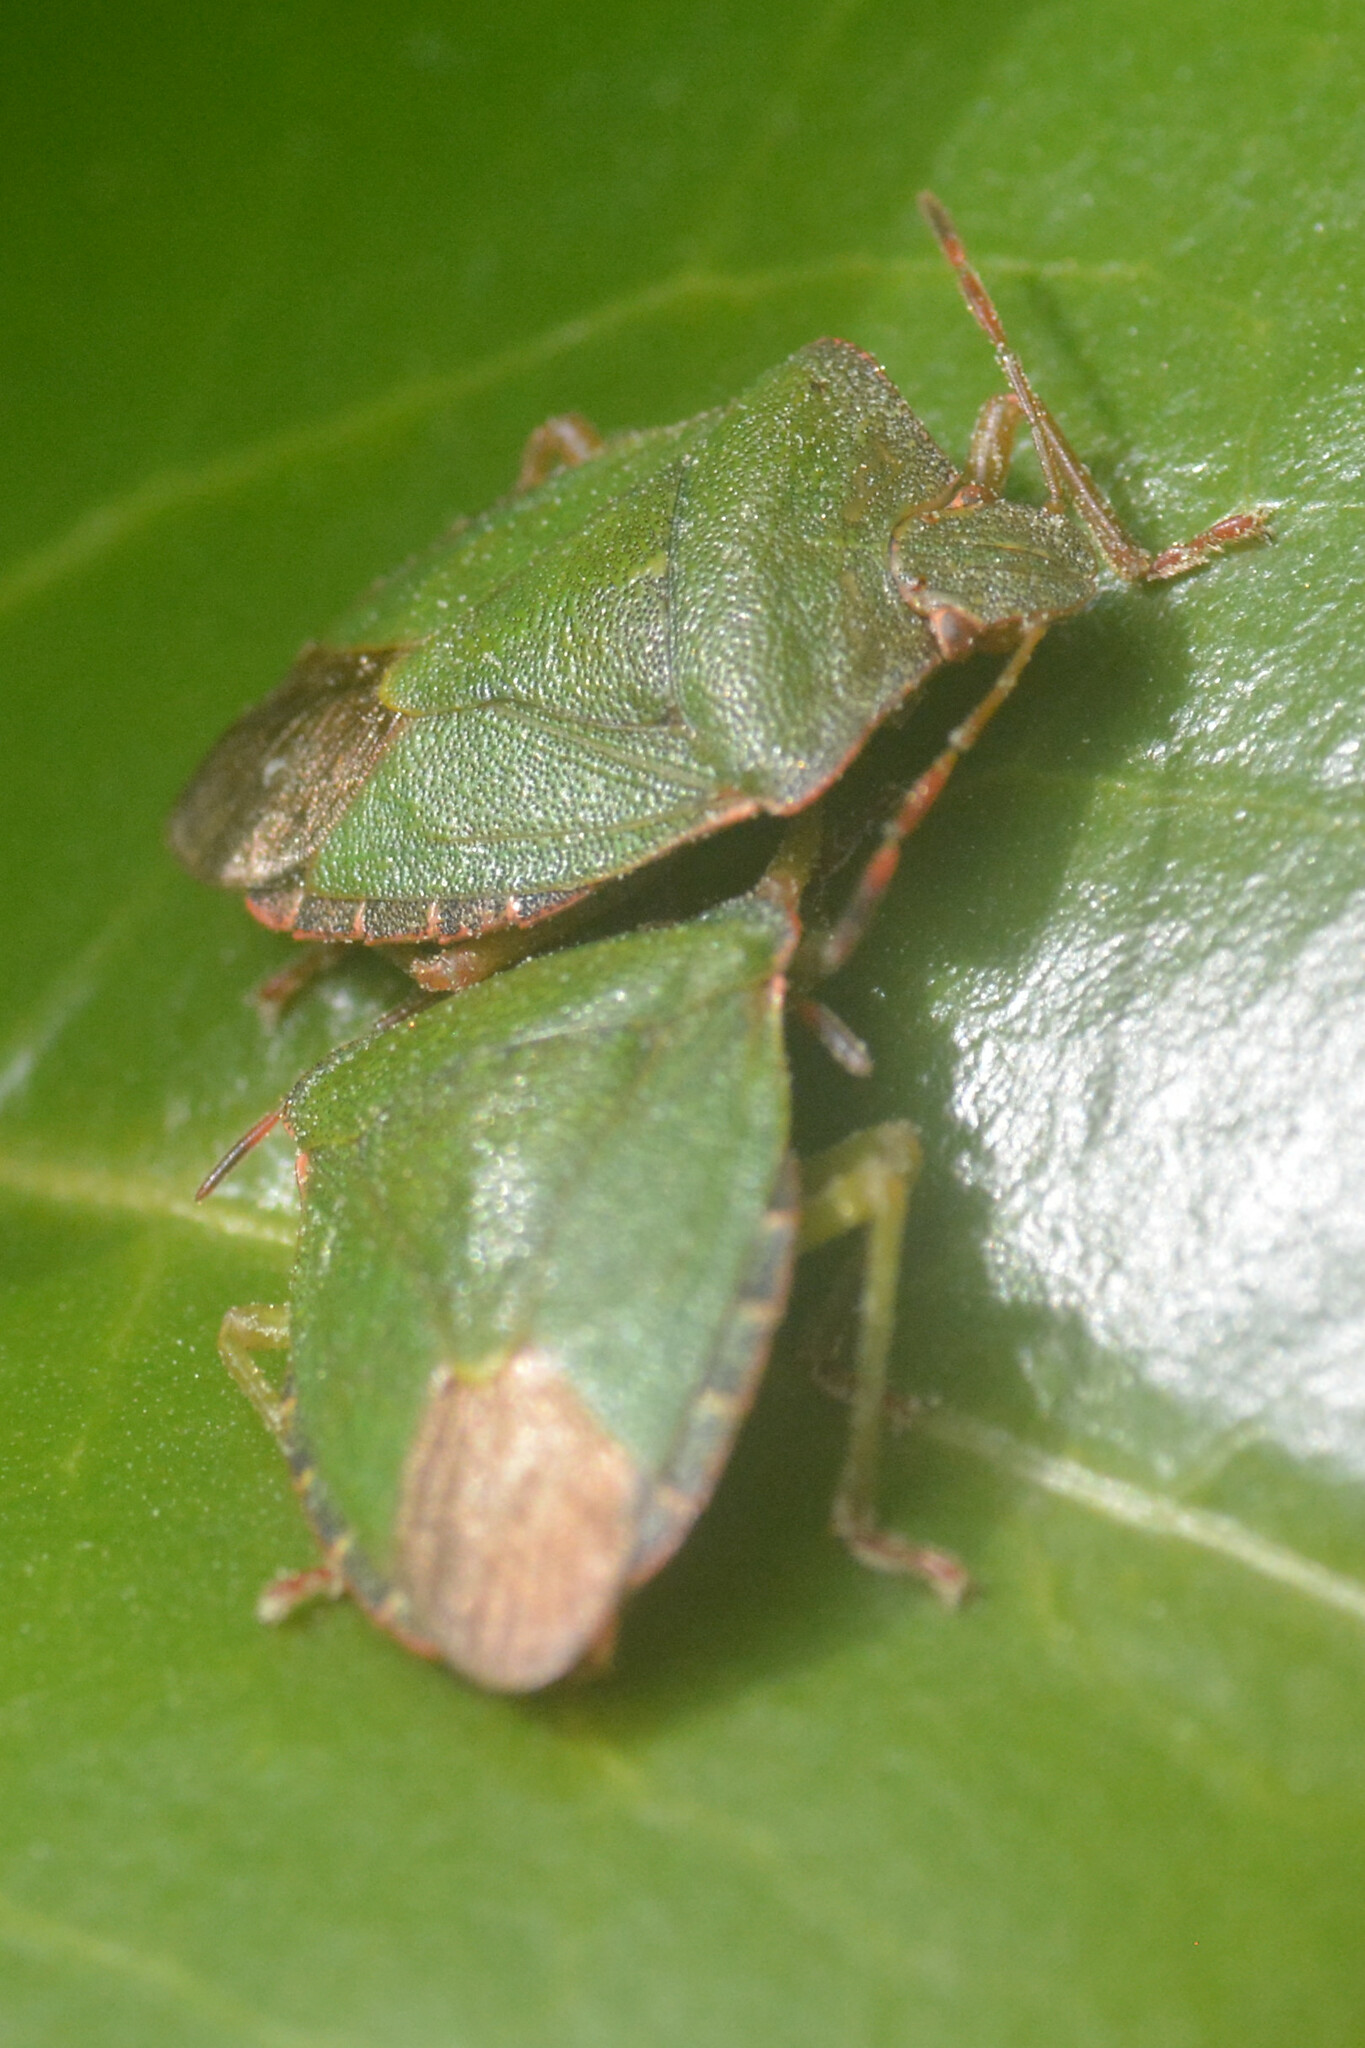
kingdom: Animalia
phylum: Arthropoda
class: Insecta
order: Hemiptera
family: Pentatomidae
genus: Palomena
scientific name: Palomena prasina
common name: Green shieldbug
